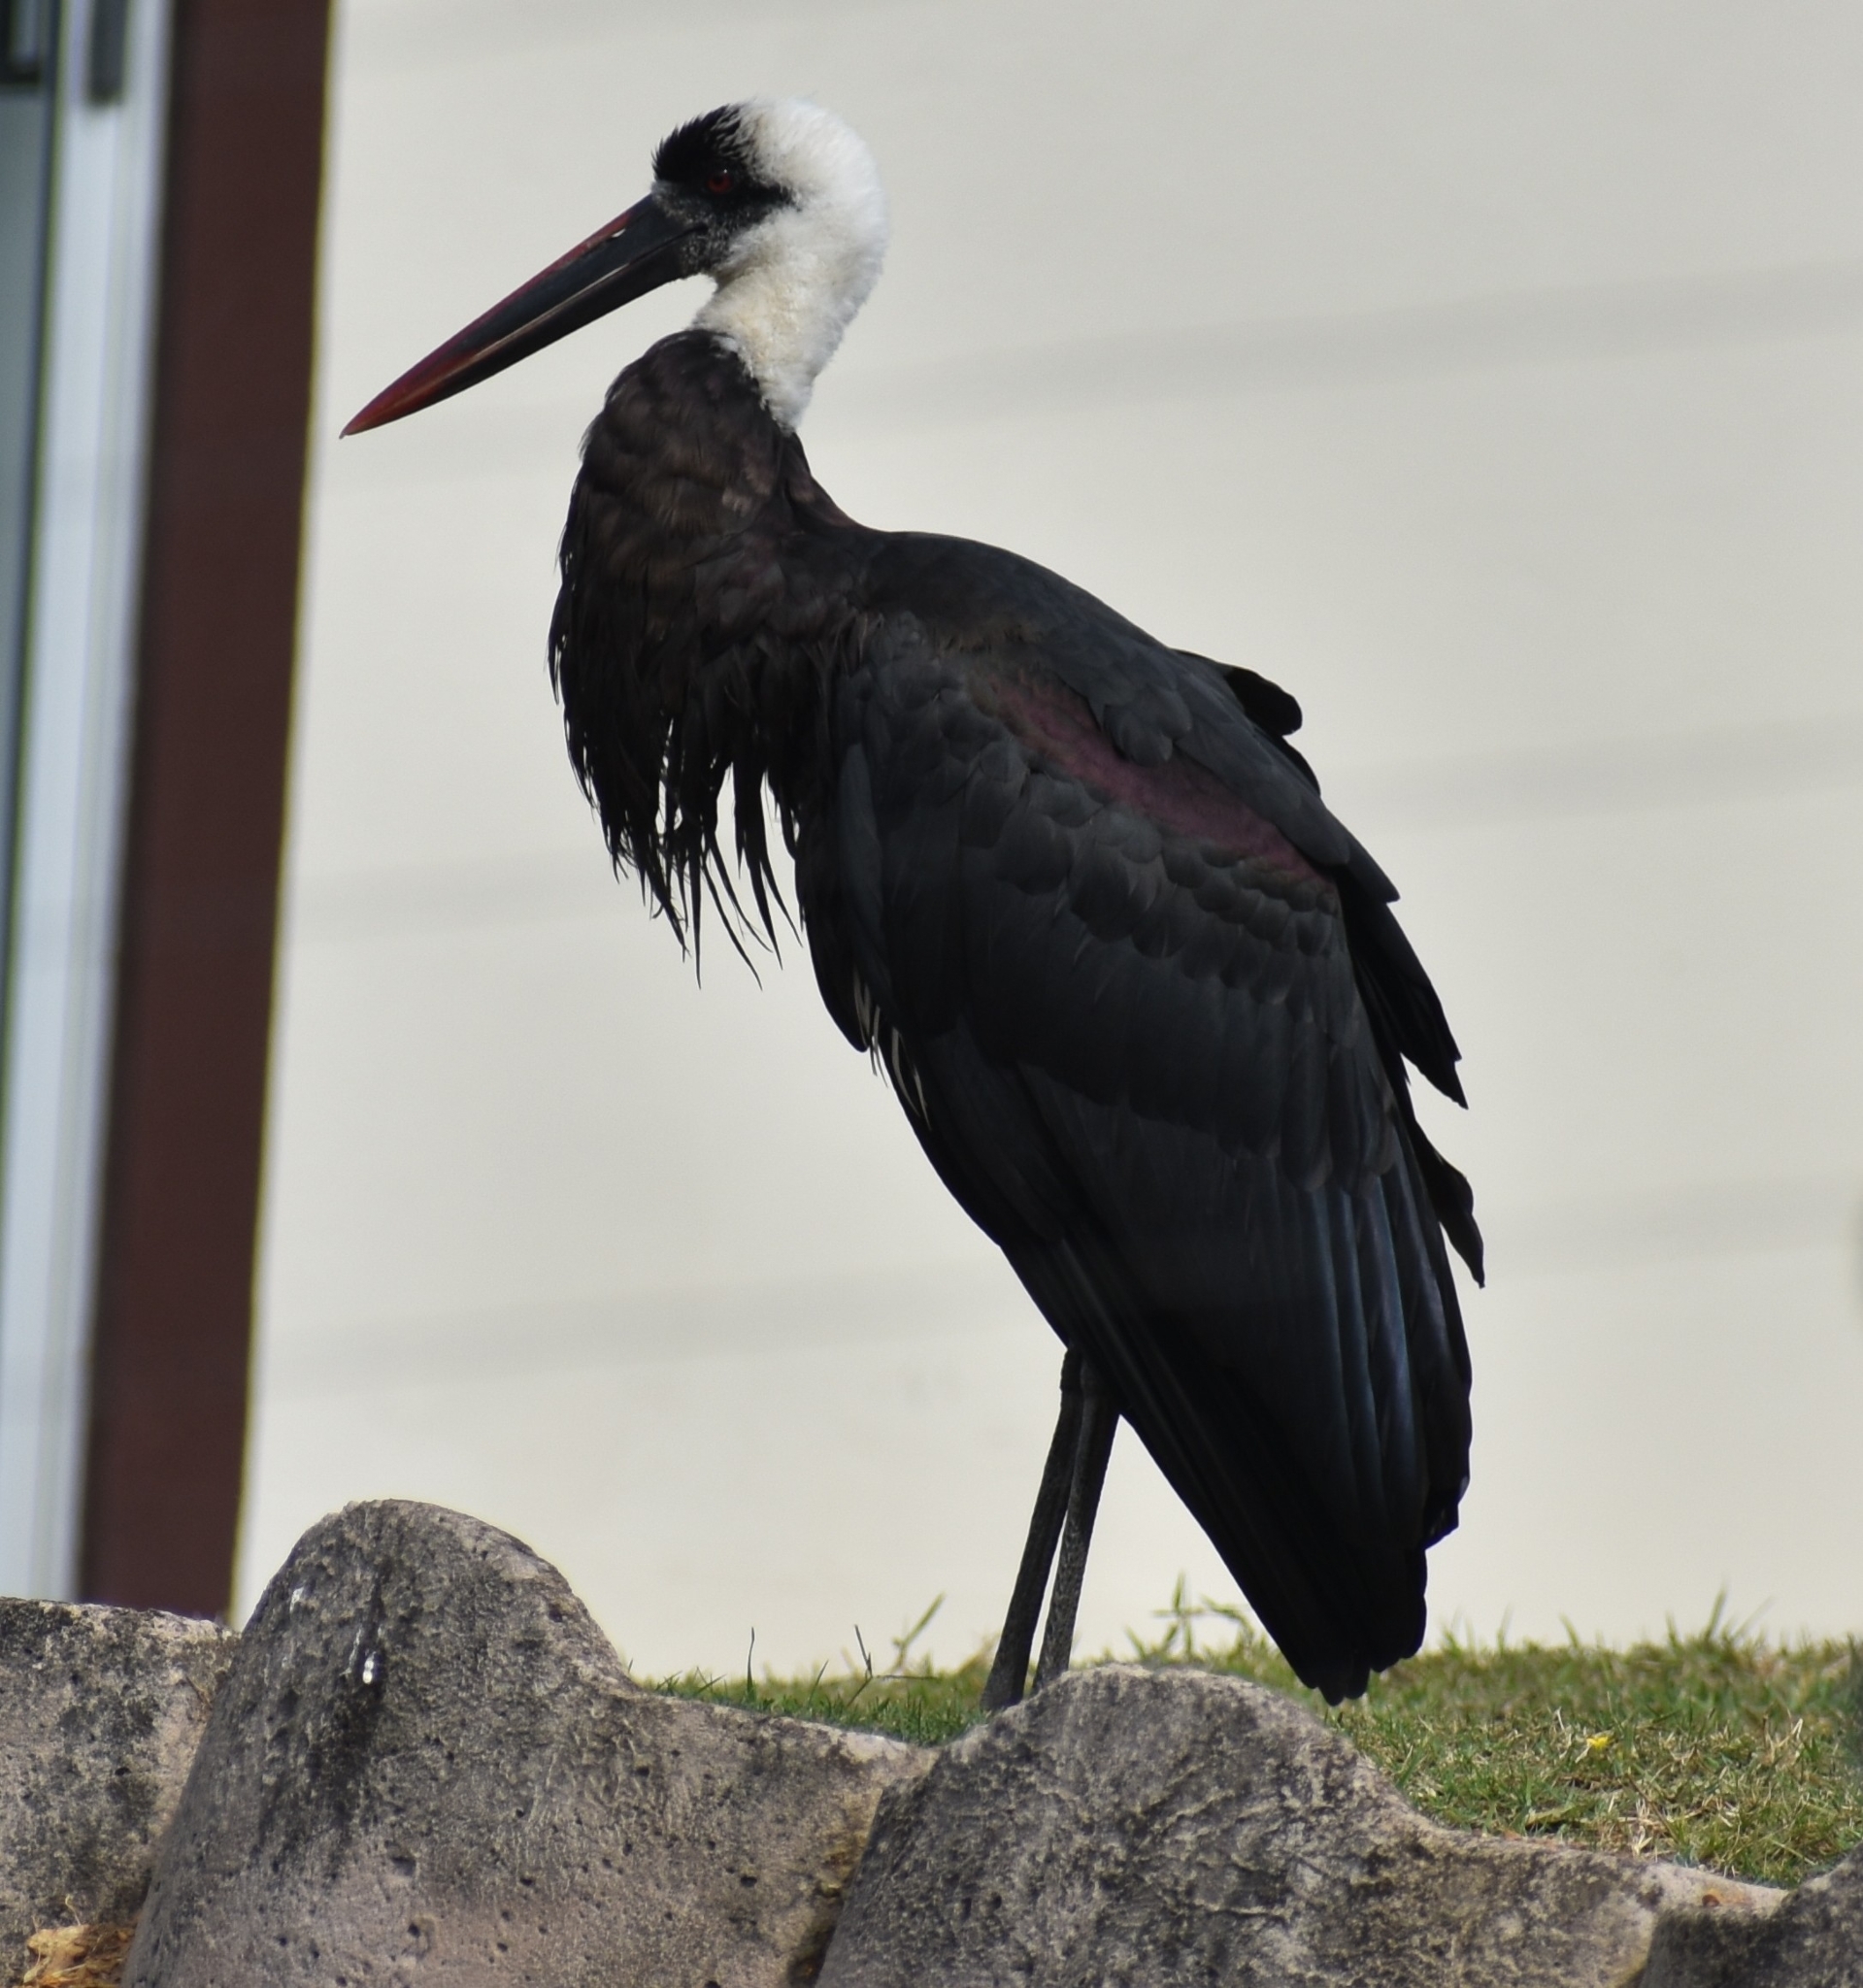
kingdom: Animalia
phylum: Chordata
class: Aves
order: Ciconiiformes
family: Ciconiidae
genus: Ciconia
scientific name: Ciconia microscelis
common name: African woollyneck
